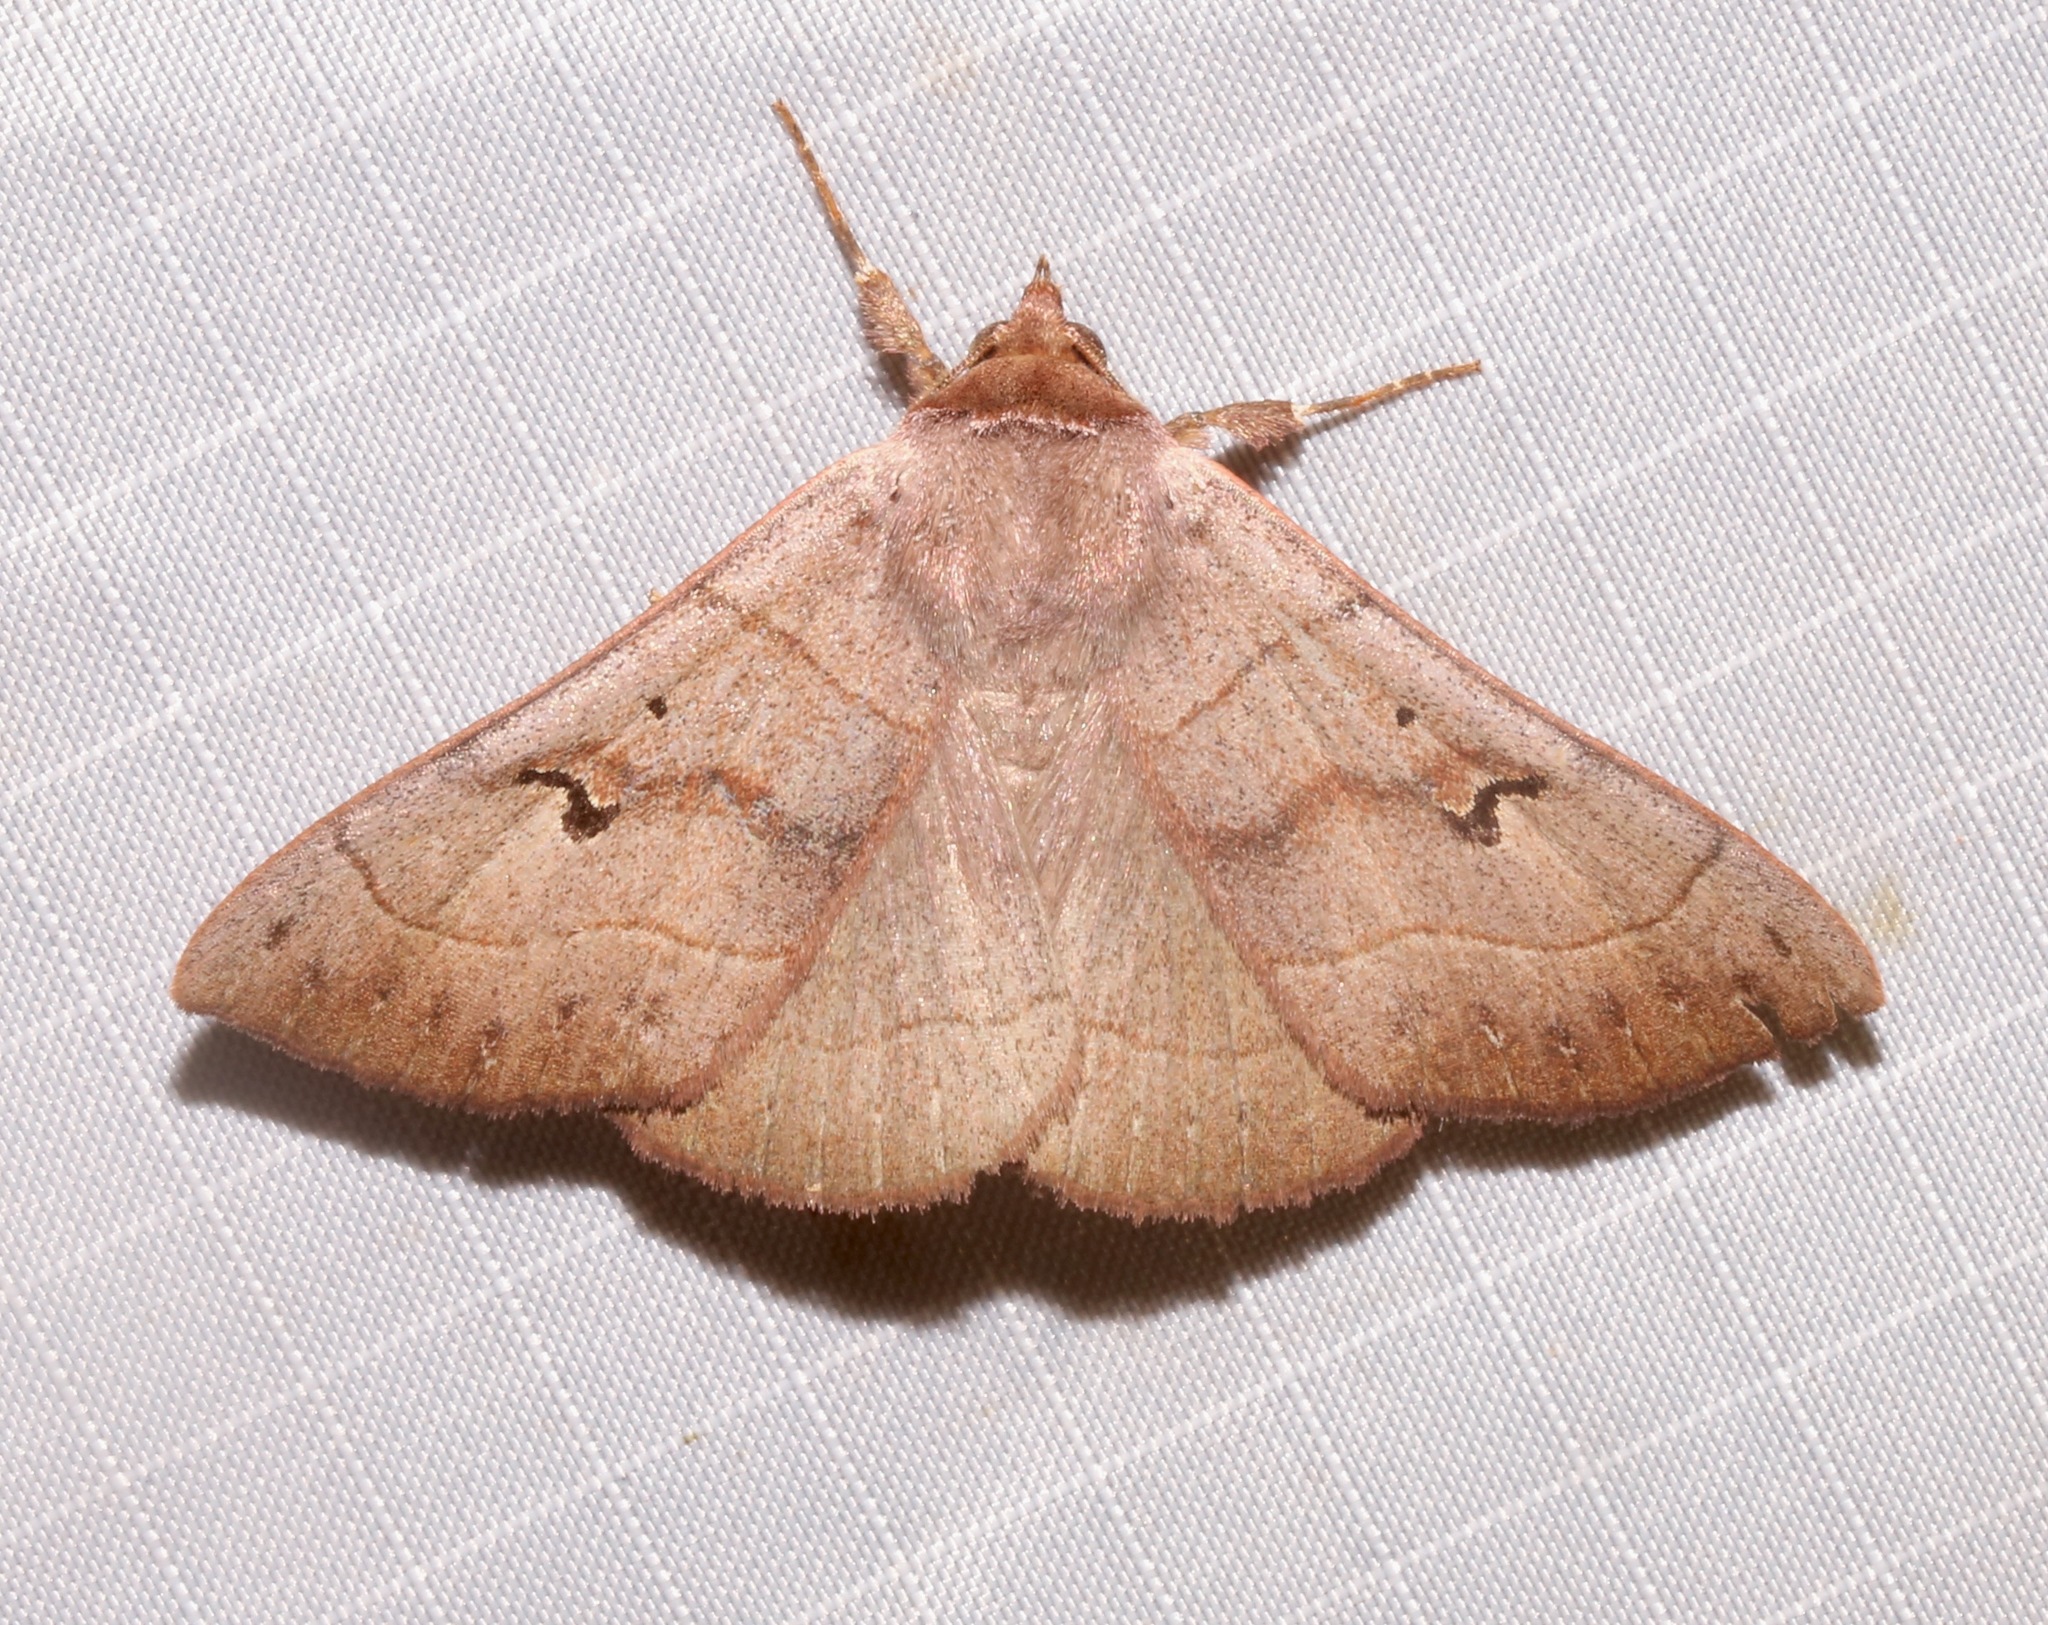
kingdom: Animalia
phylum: Arthropoda
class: Insecta
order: Lepidoptera
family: Erebidae
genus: Panopoda
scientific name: Panopoda carneicosta
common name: Brown panopoda moth
